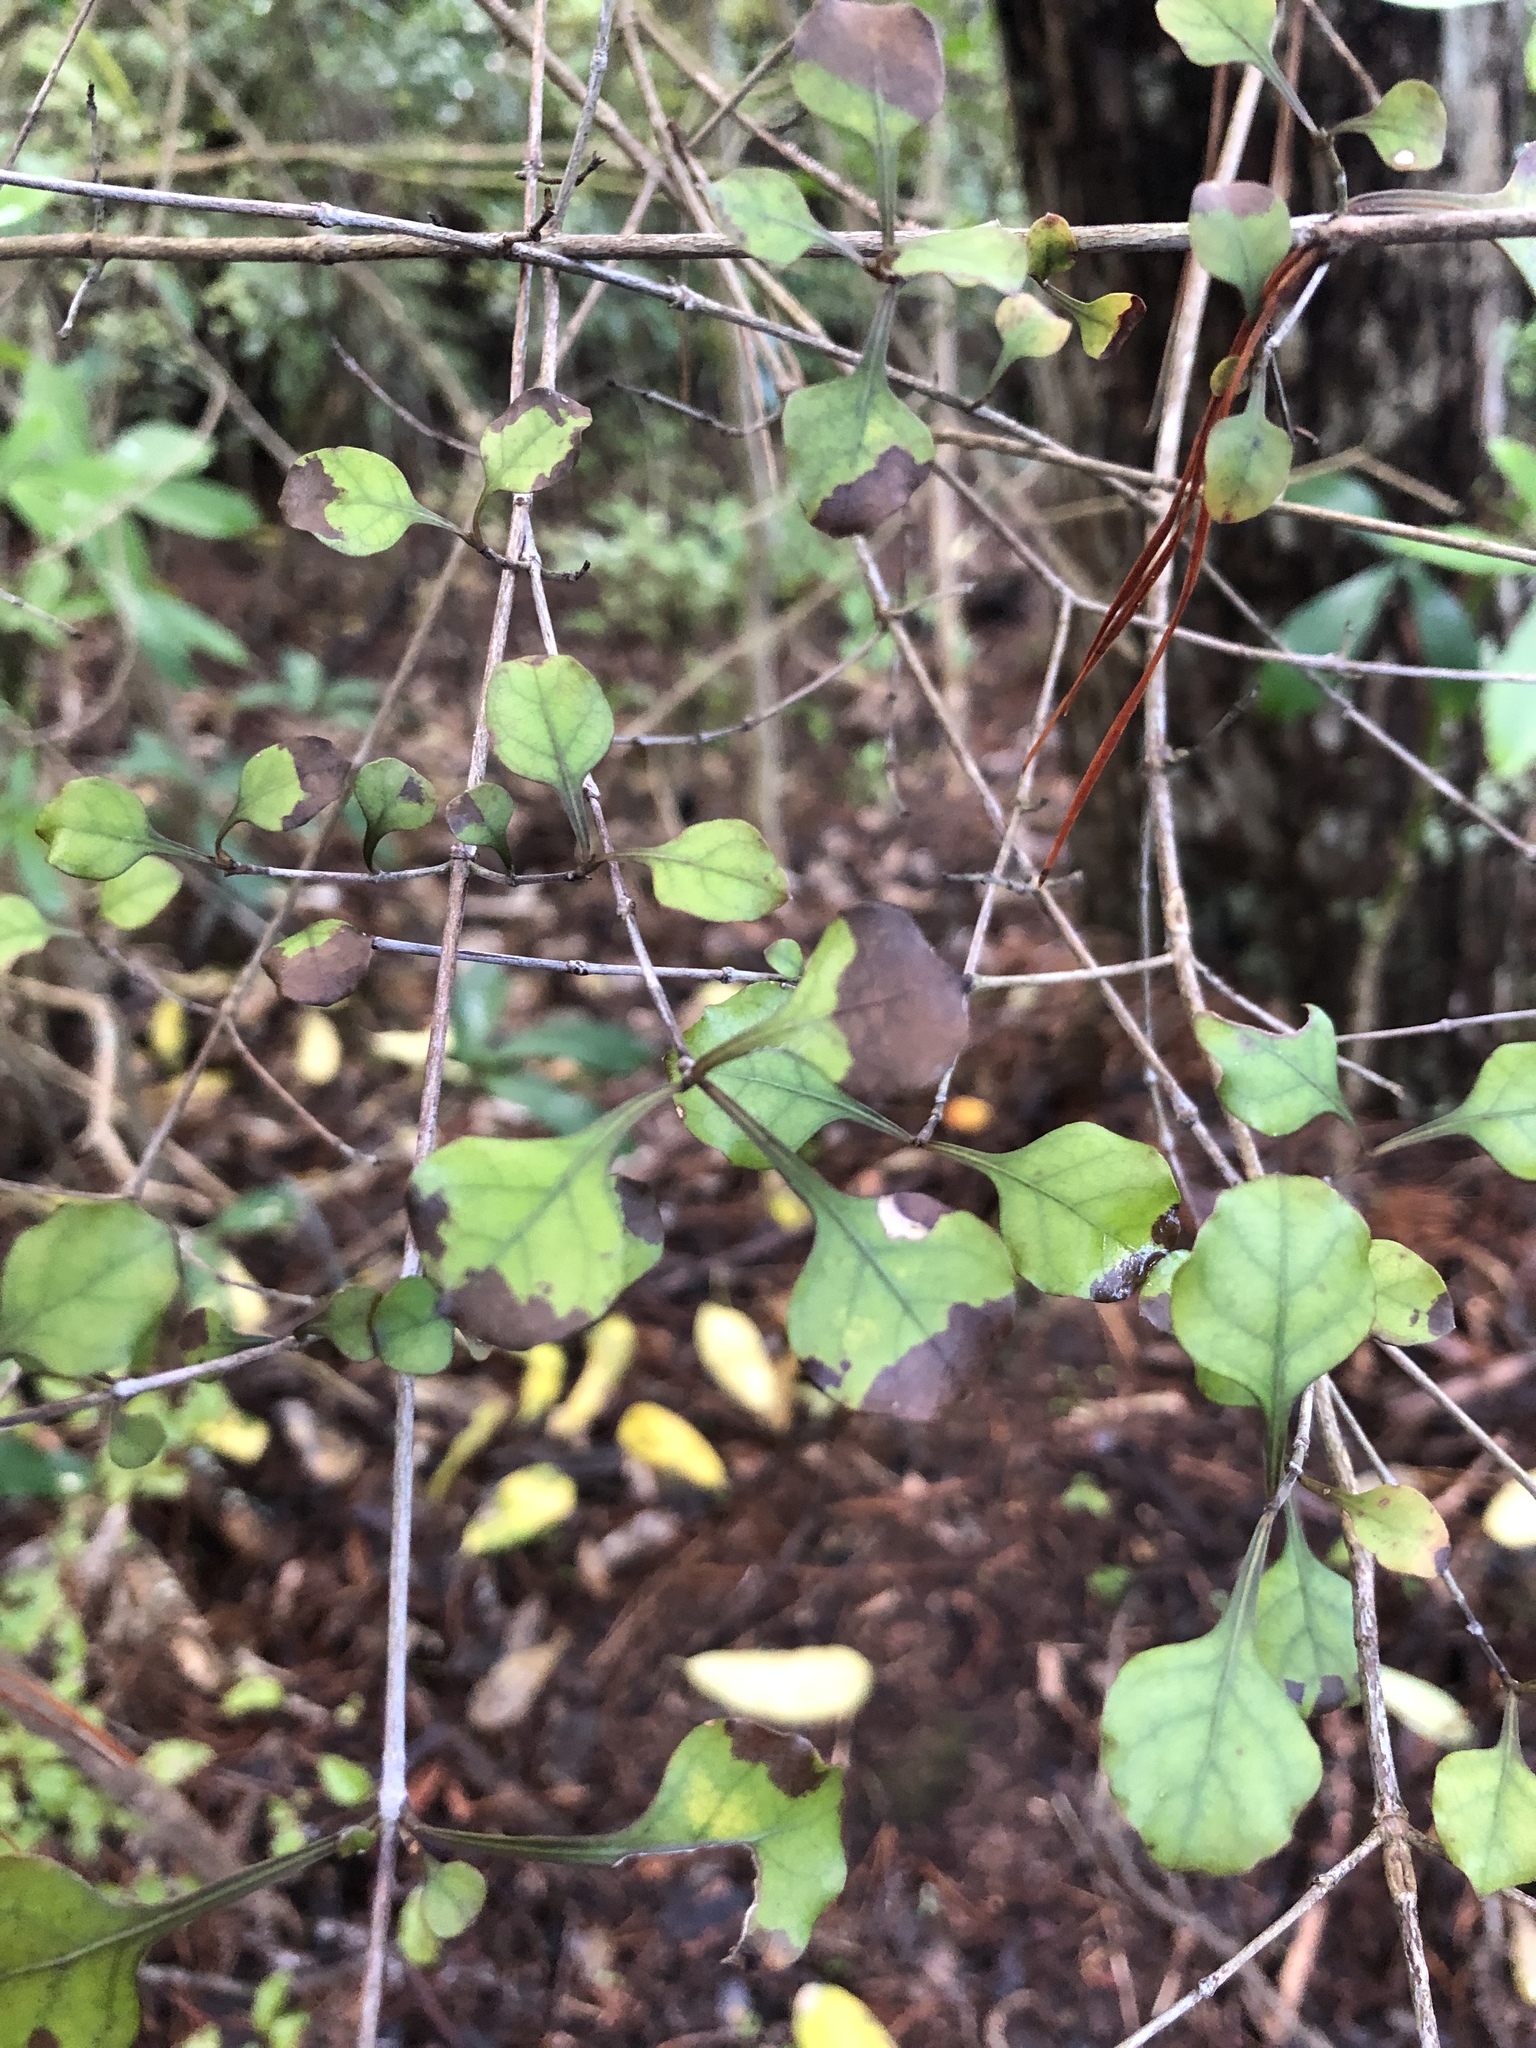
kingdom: Plantae
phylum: Tracheophyta
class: Magnoliopsida
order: Gentianales
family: Rubiaceae
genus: Coprosma
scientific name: Coprosma arborea
